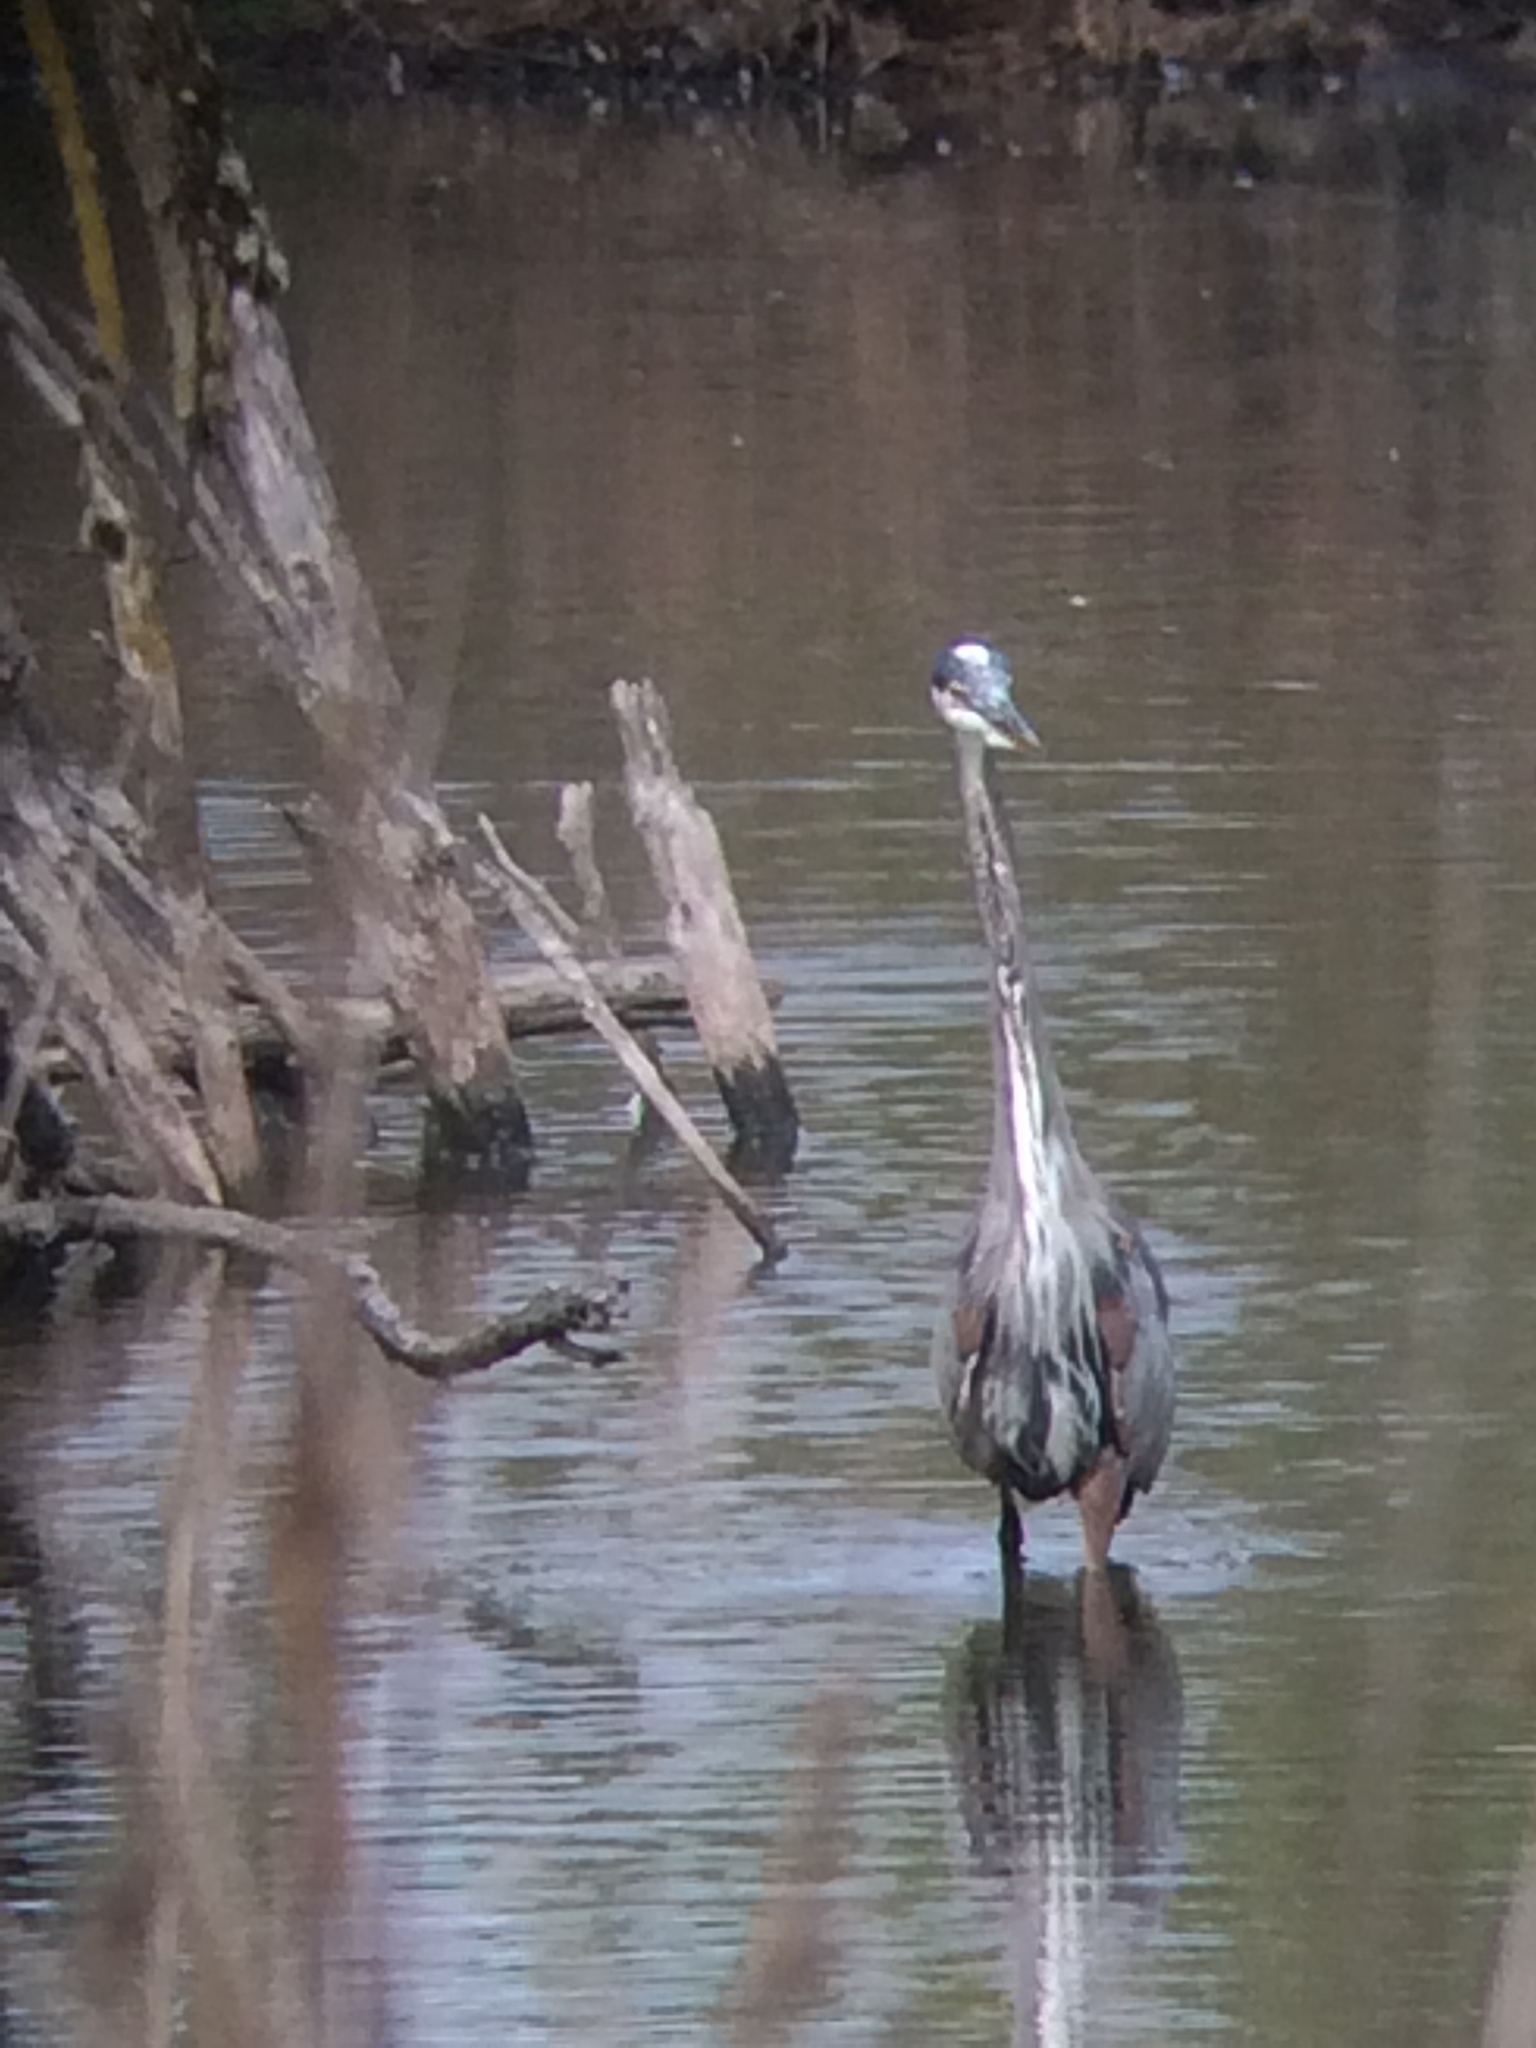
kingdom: Animalia
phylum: Chordata
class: Aves
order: Pelecaniformes
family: Ardeidae
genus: Ardea
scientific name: Ardea herodias
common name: Great blue heron
